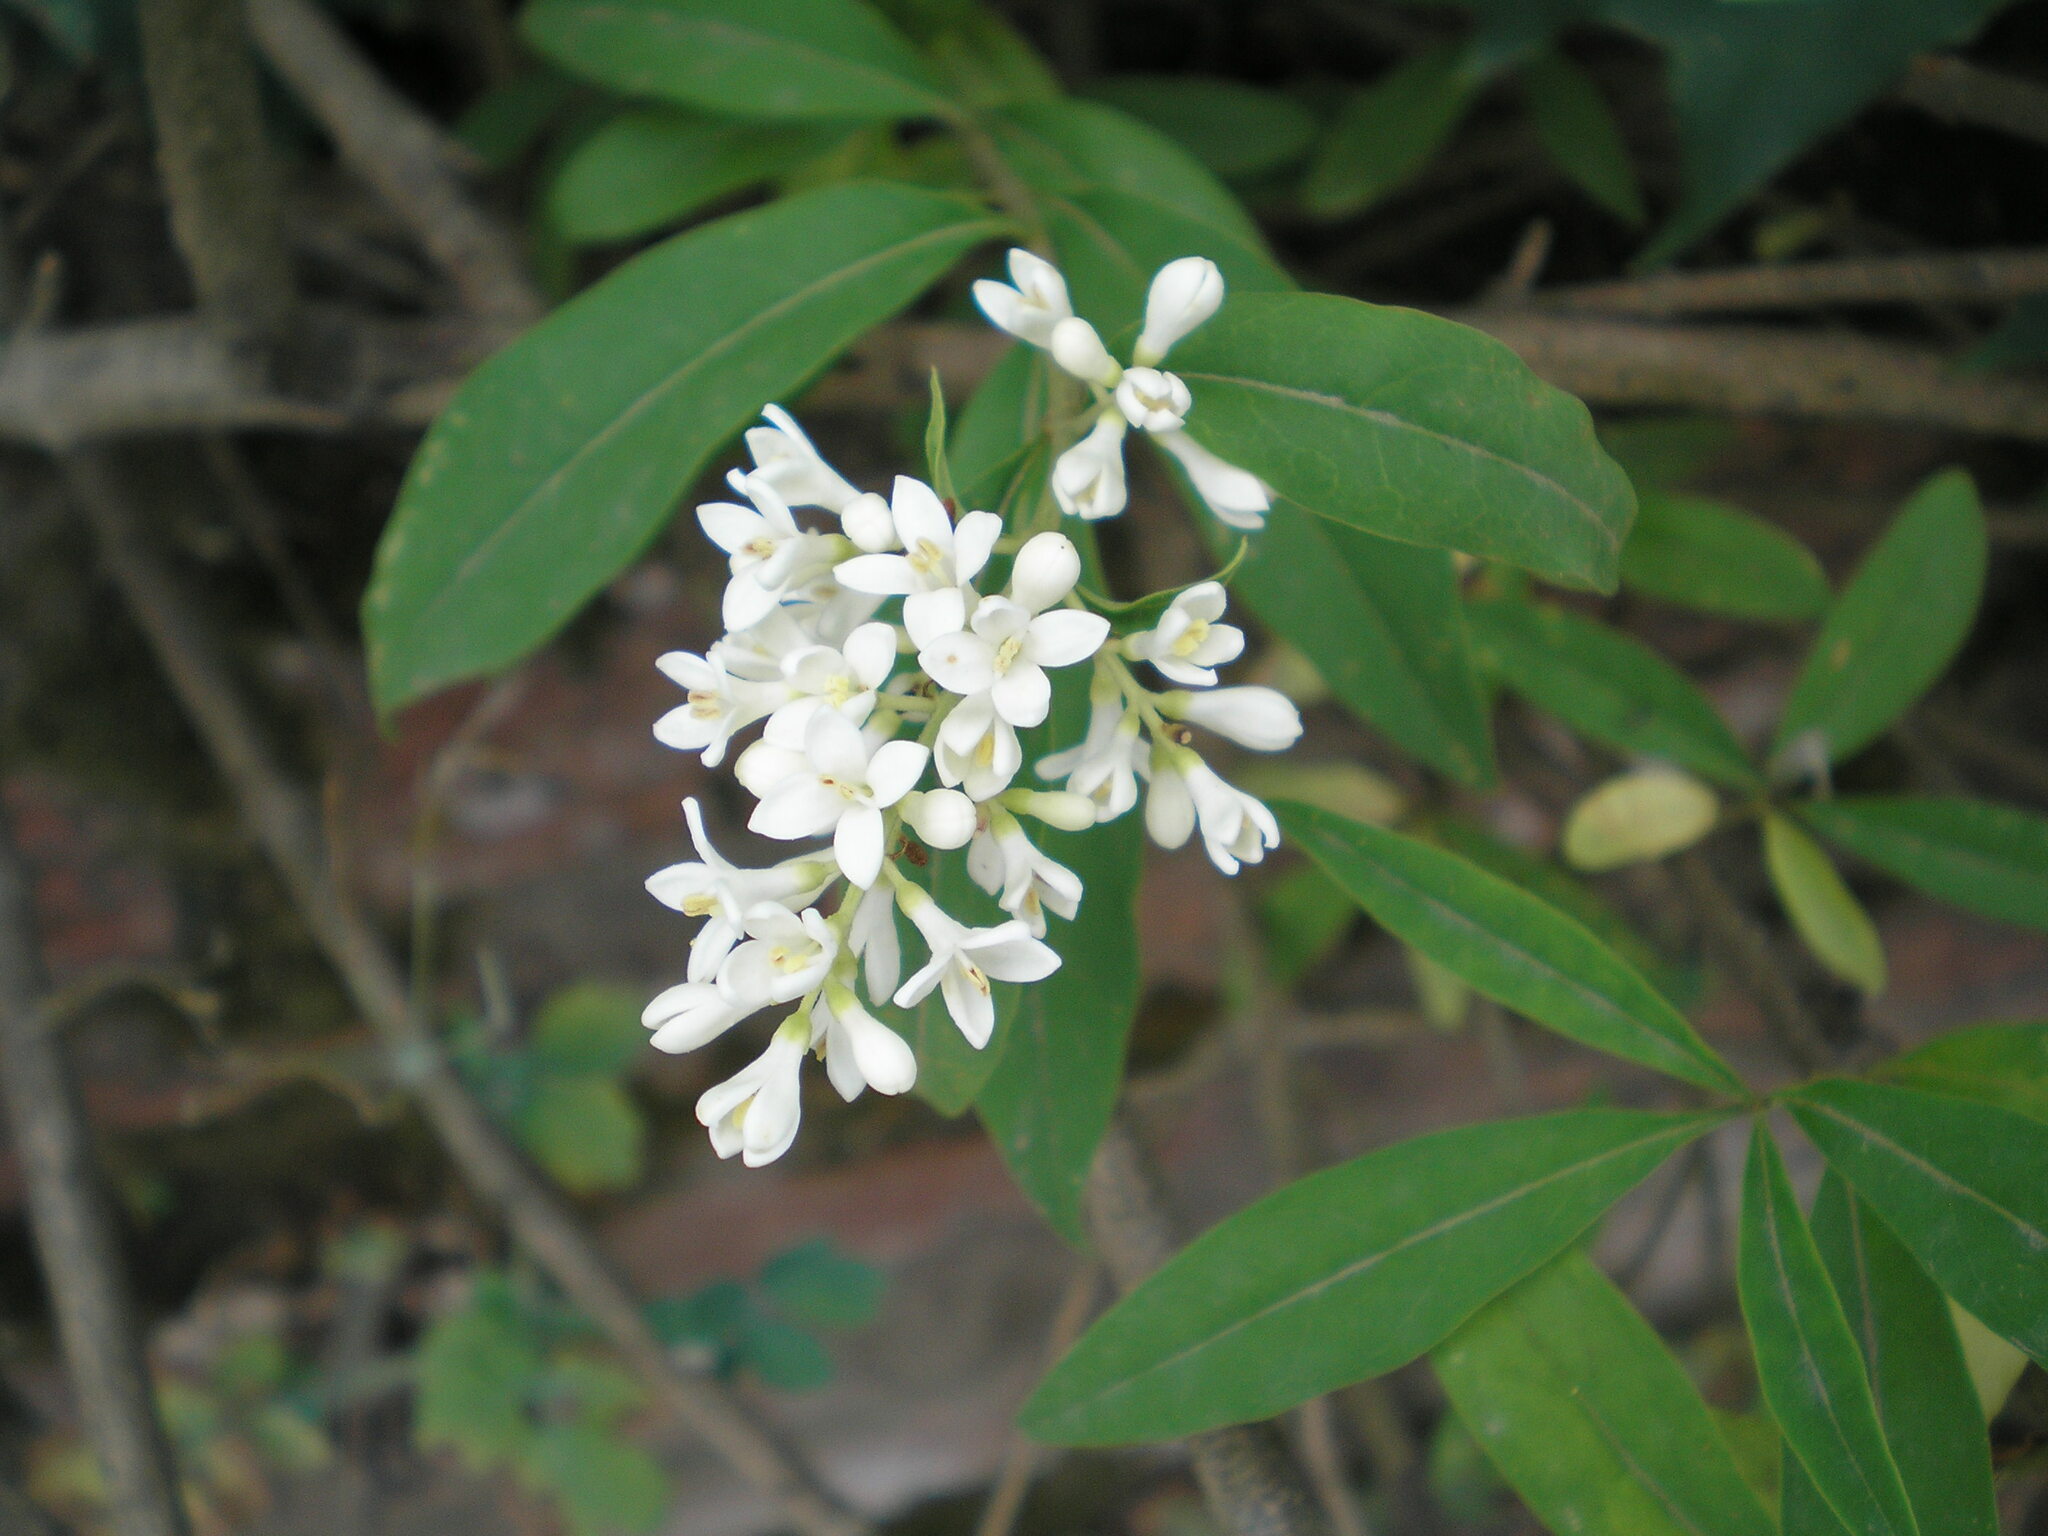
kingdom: Plantae
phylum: Tracheophyta
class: Magnoliopsida
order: Lamiales
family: Oleaceae
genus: Ligustrum
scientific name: Ligustrum vulgare
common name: Wild privet
